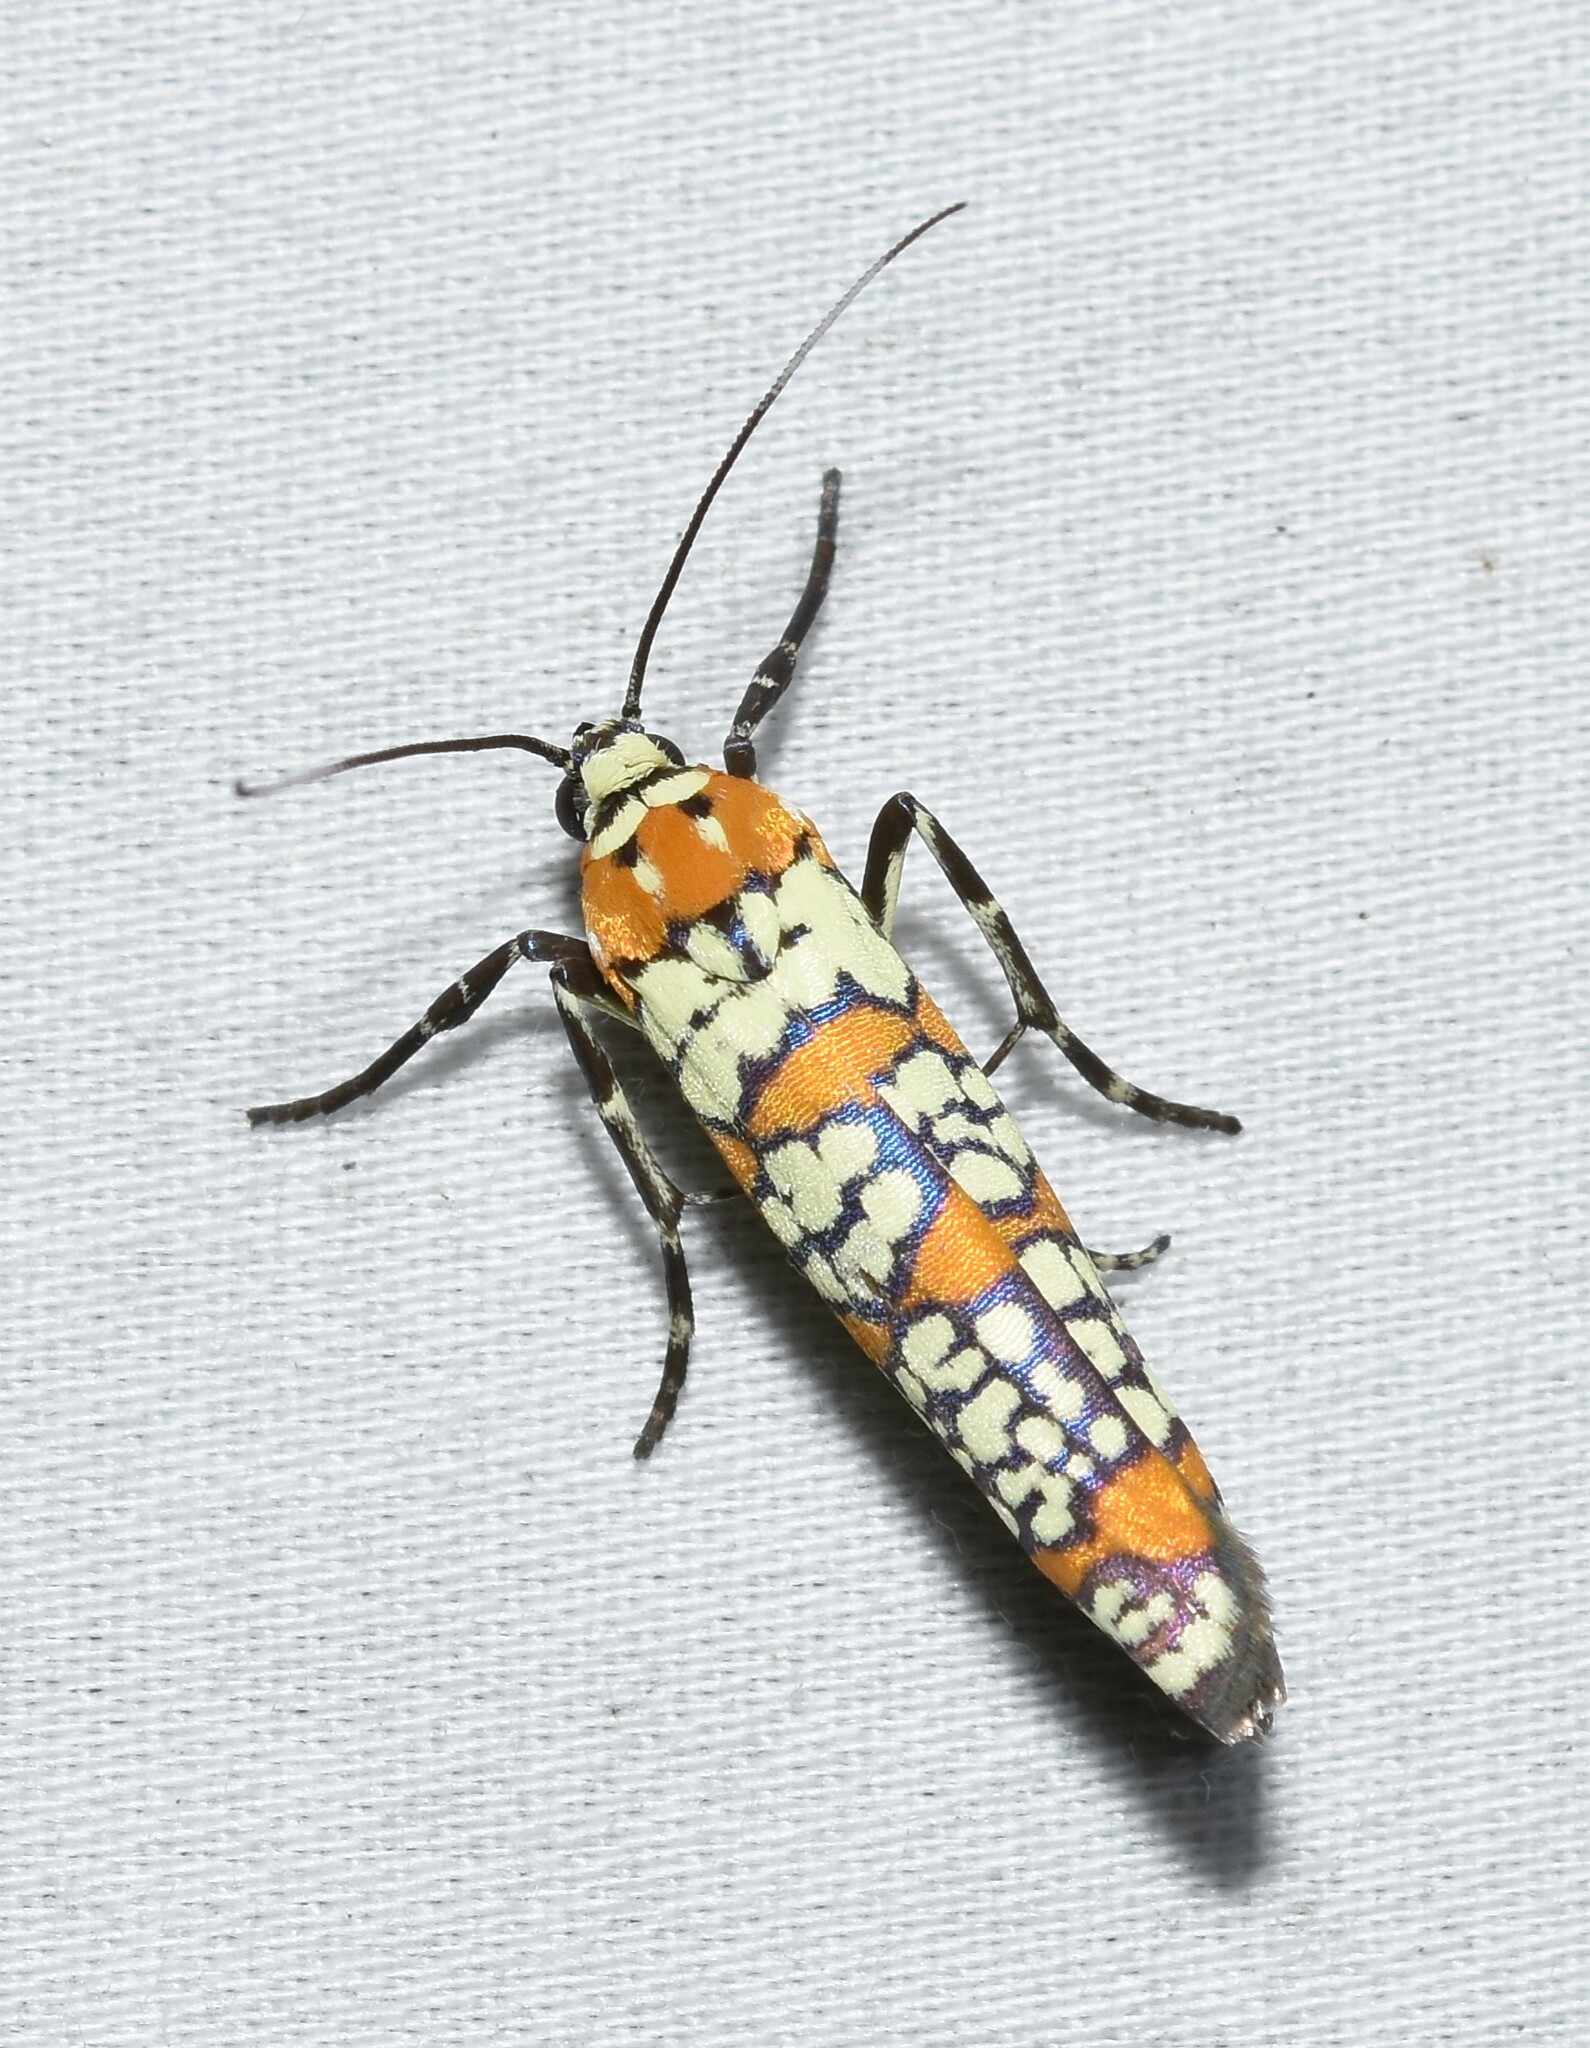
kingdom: Animalia
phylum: Arthropoda
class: Insecta
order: Lepidoptera
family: Attevidae
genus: Atteva
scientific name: Atteva punctella
